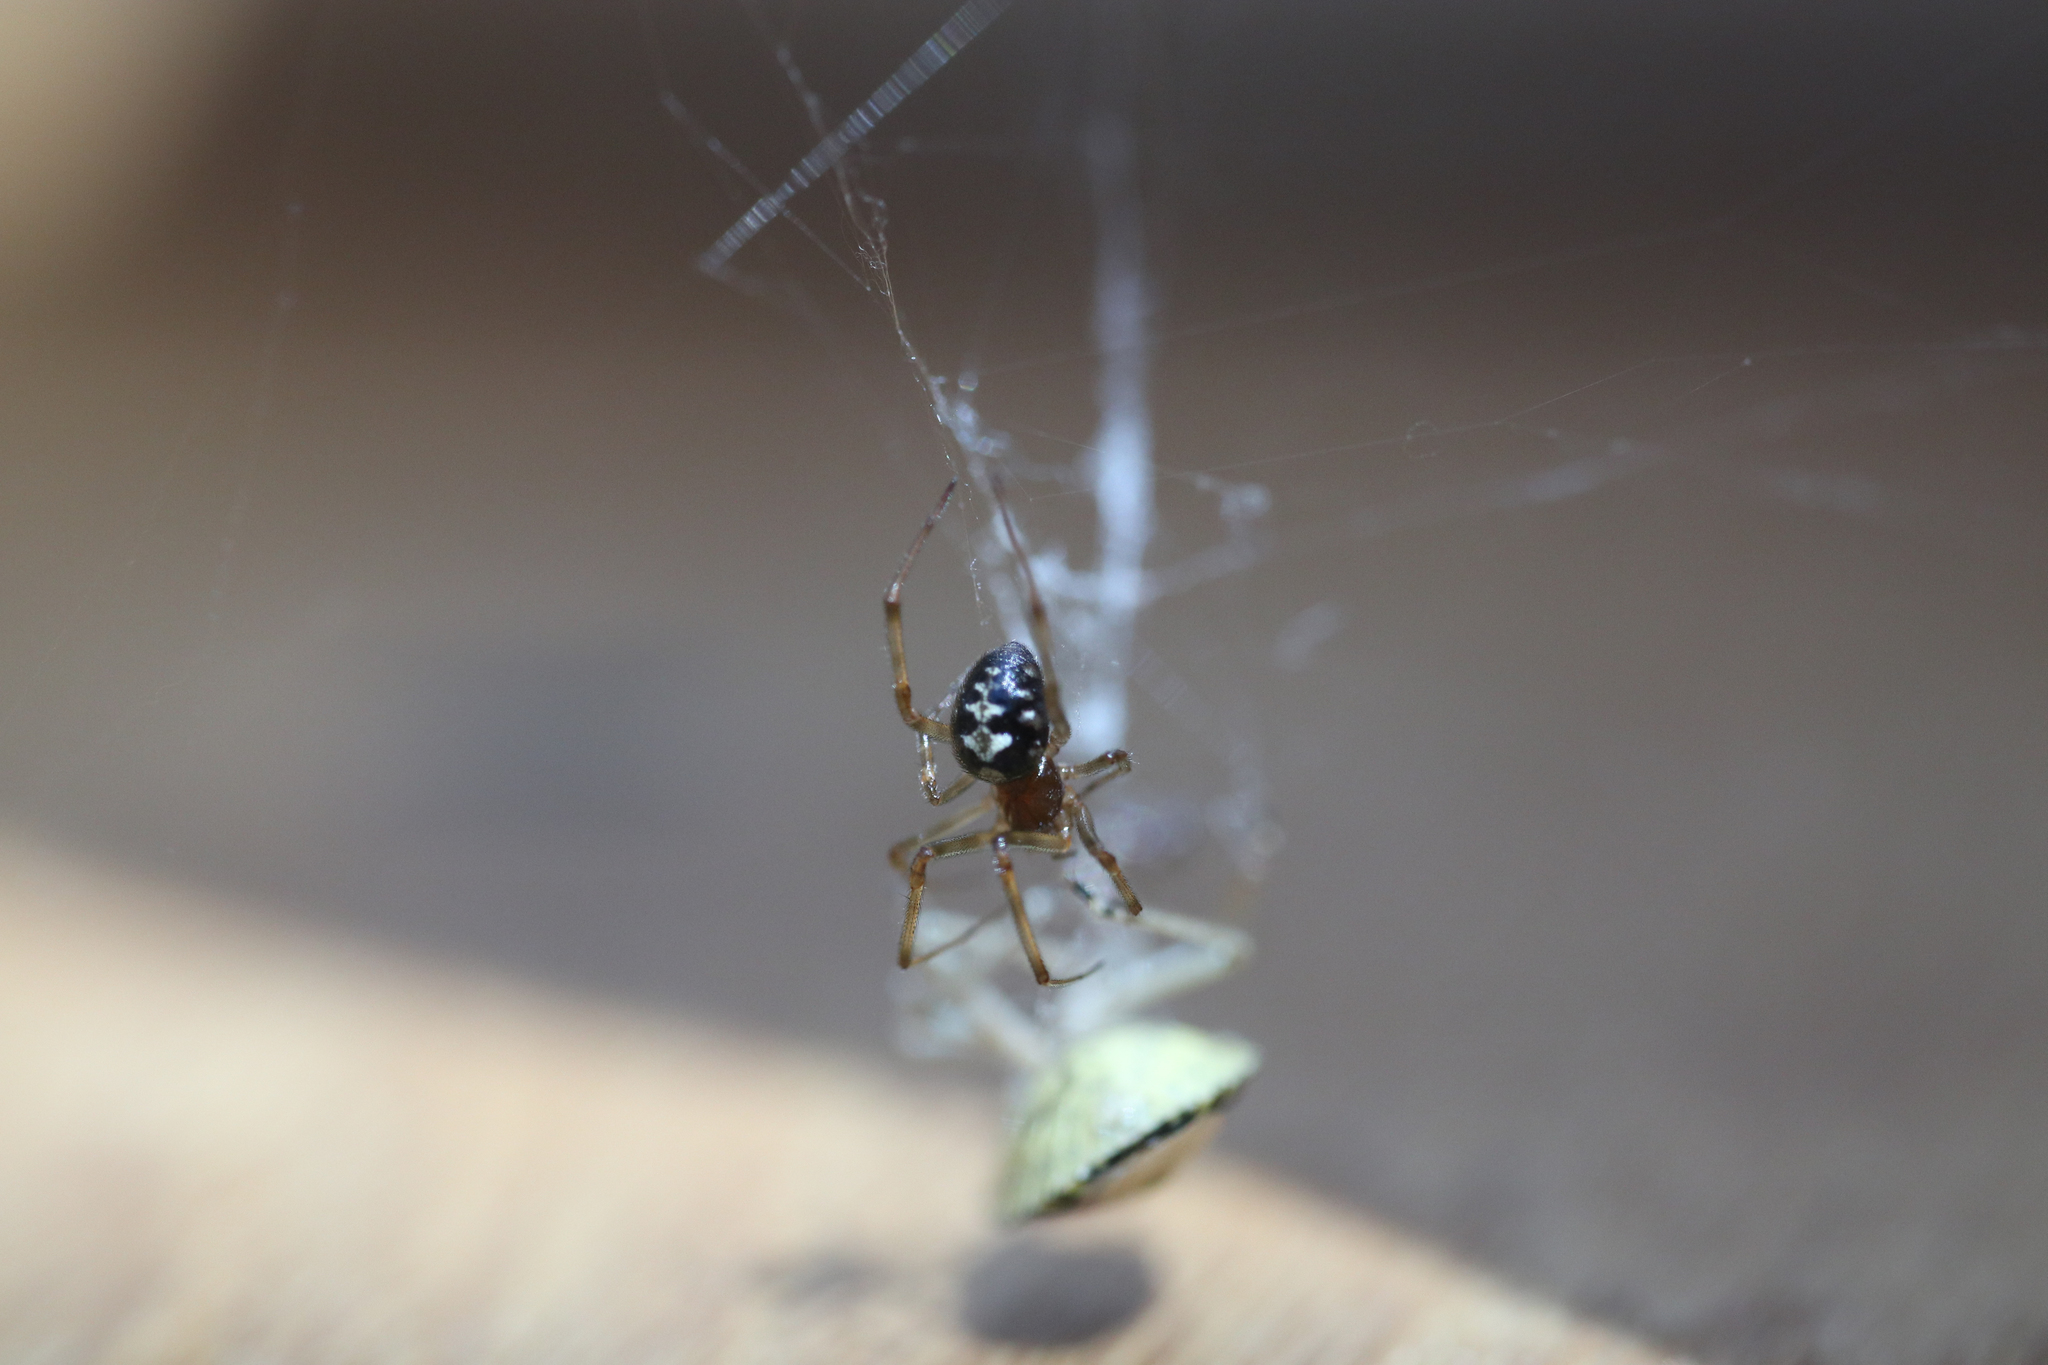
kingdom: Animalia
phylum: Arthropoda
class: Arachnida
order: Araneae
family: Theridiidae
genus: Steatoda
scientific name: Steatoda triangulosa
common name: Triangulate bud spider
